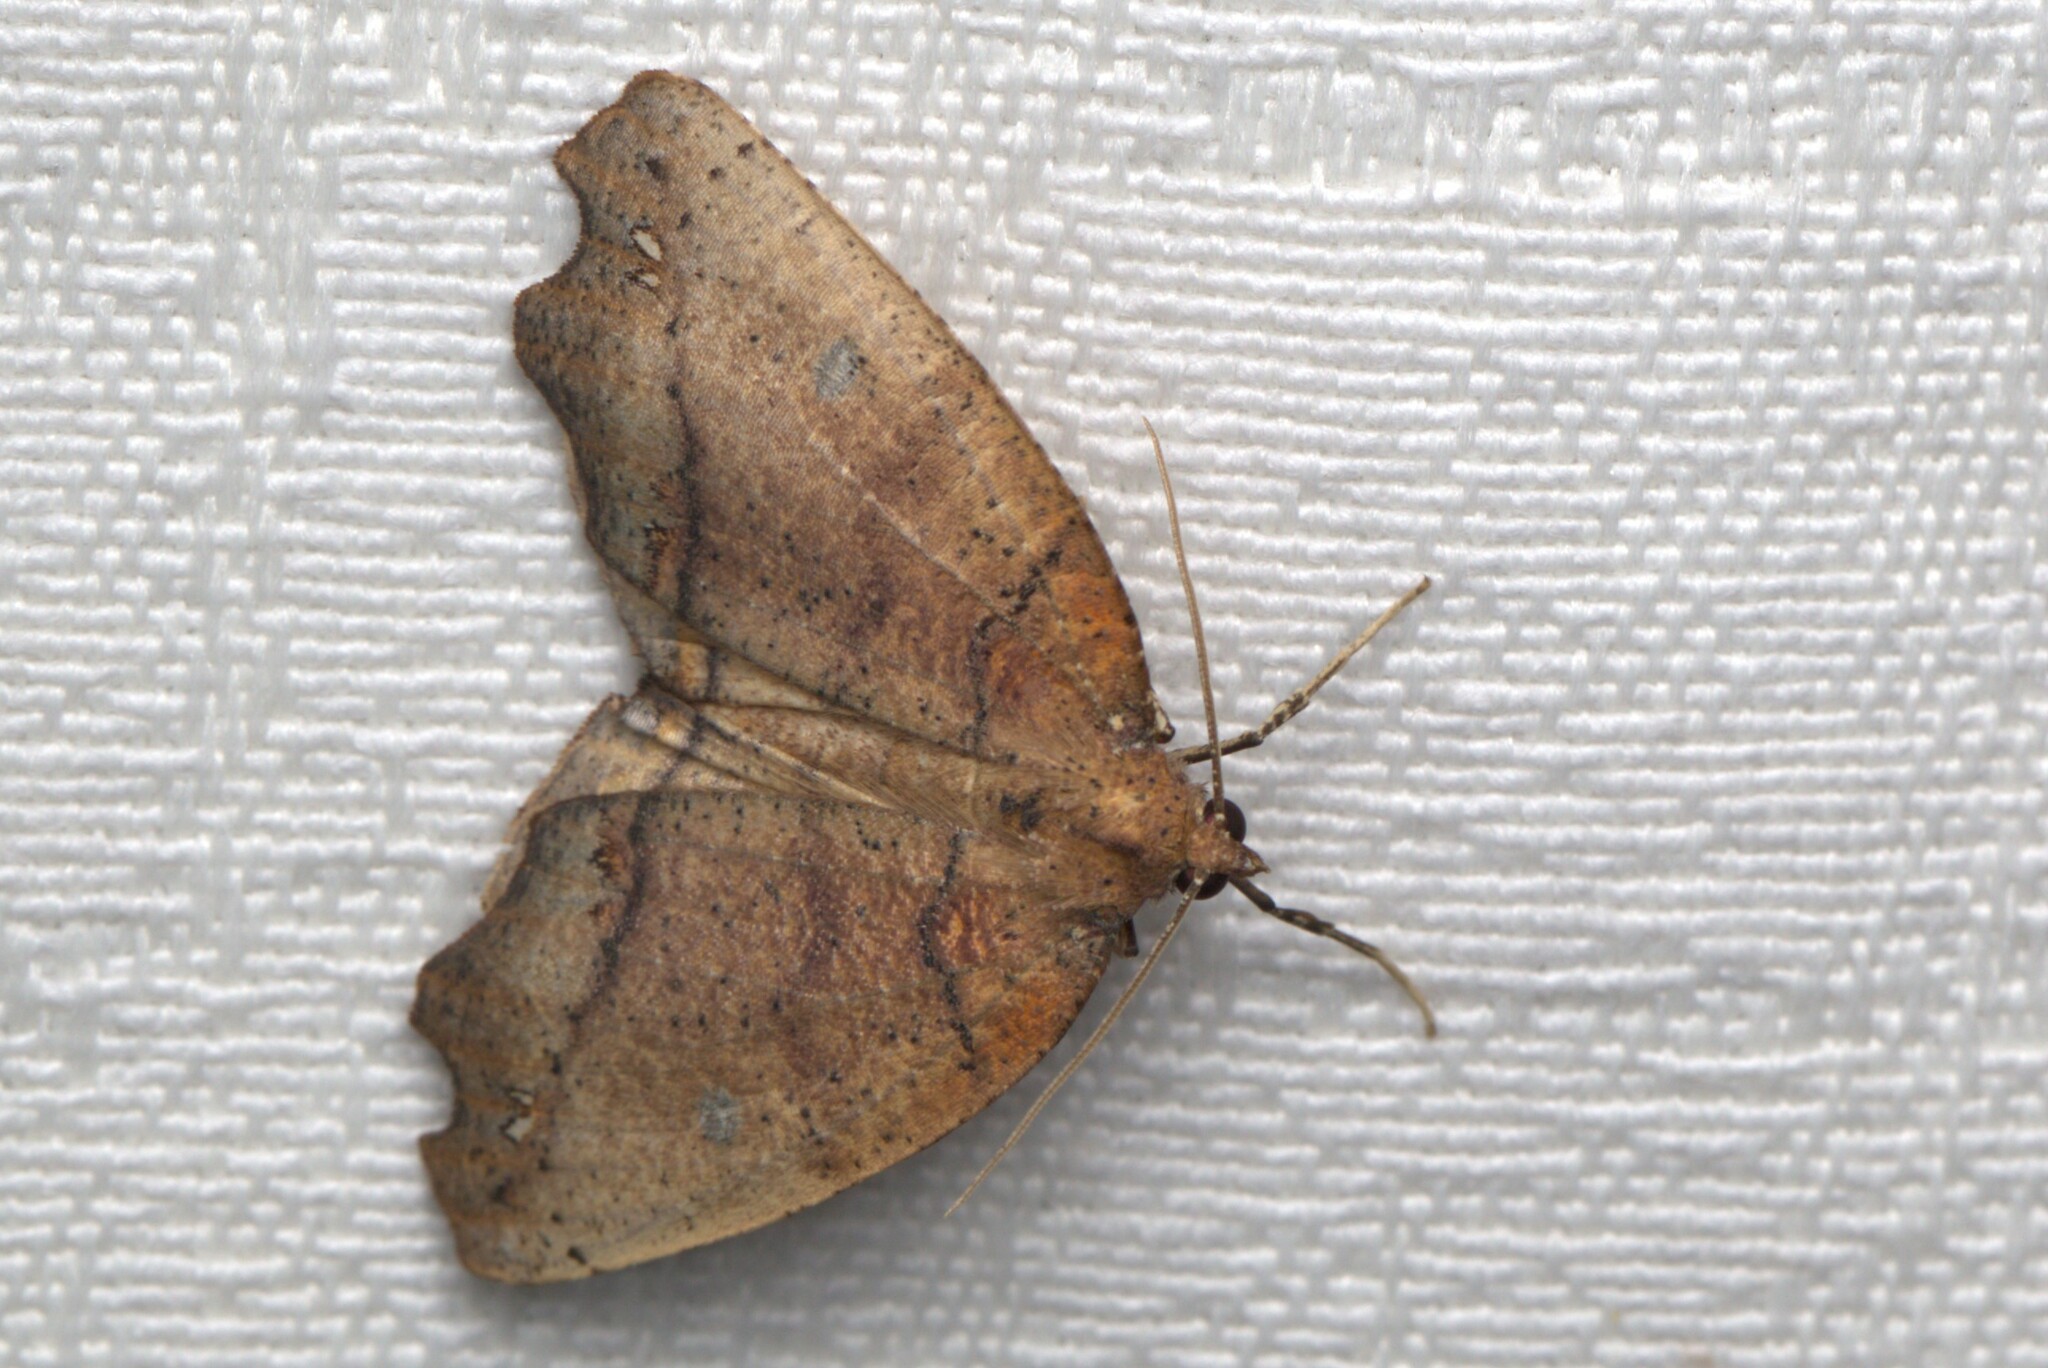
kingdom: Animalia
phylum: Arthropoda
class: Insecta
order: Lepidoptera
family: Geometridae
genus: Xylodryas
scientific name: Xylodryas leptoxantha
